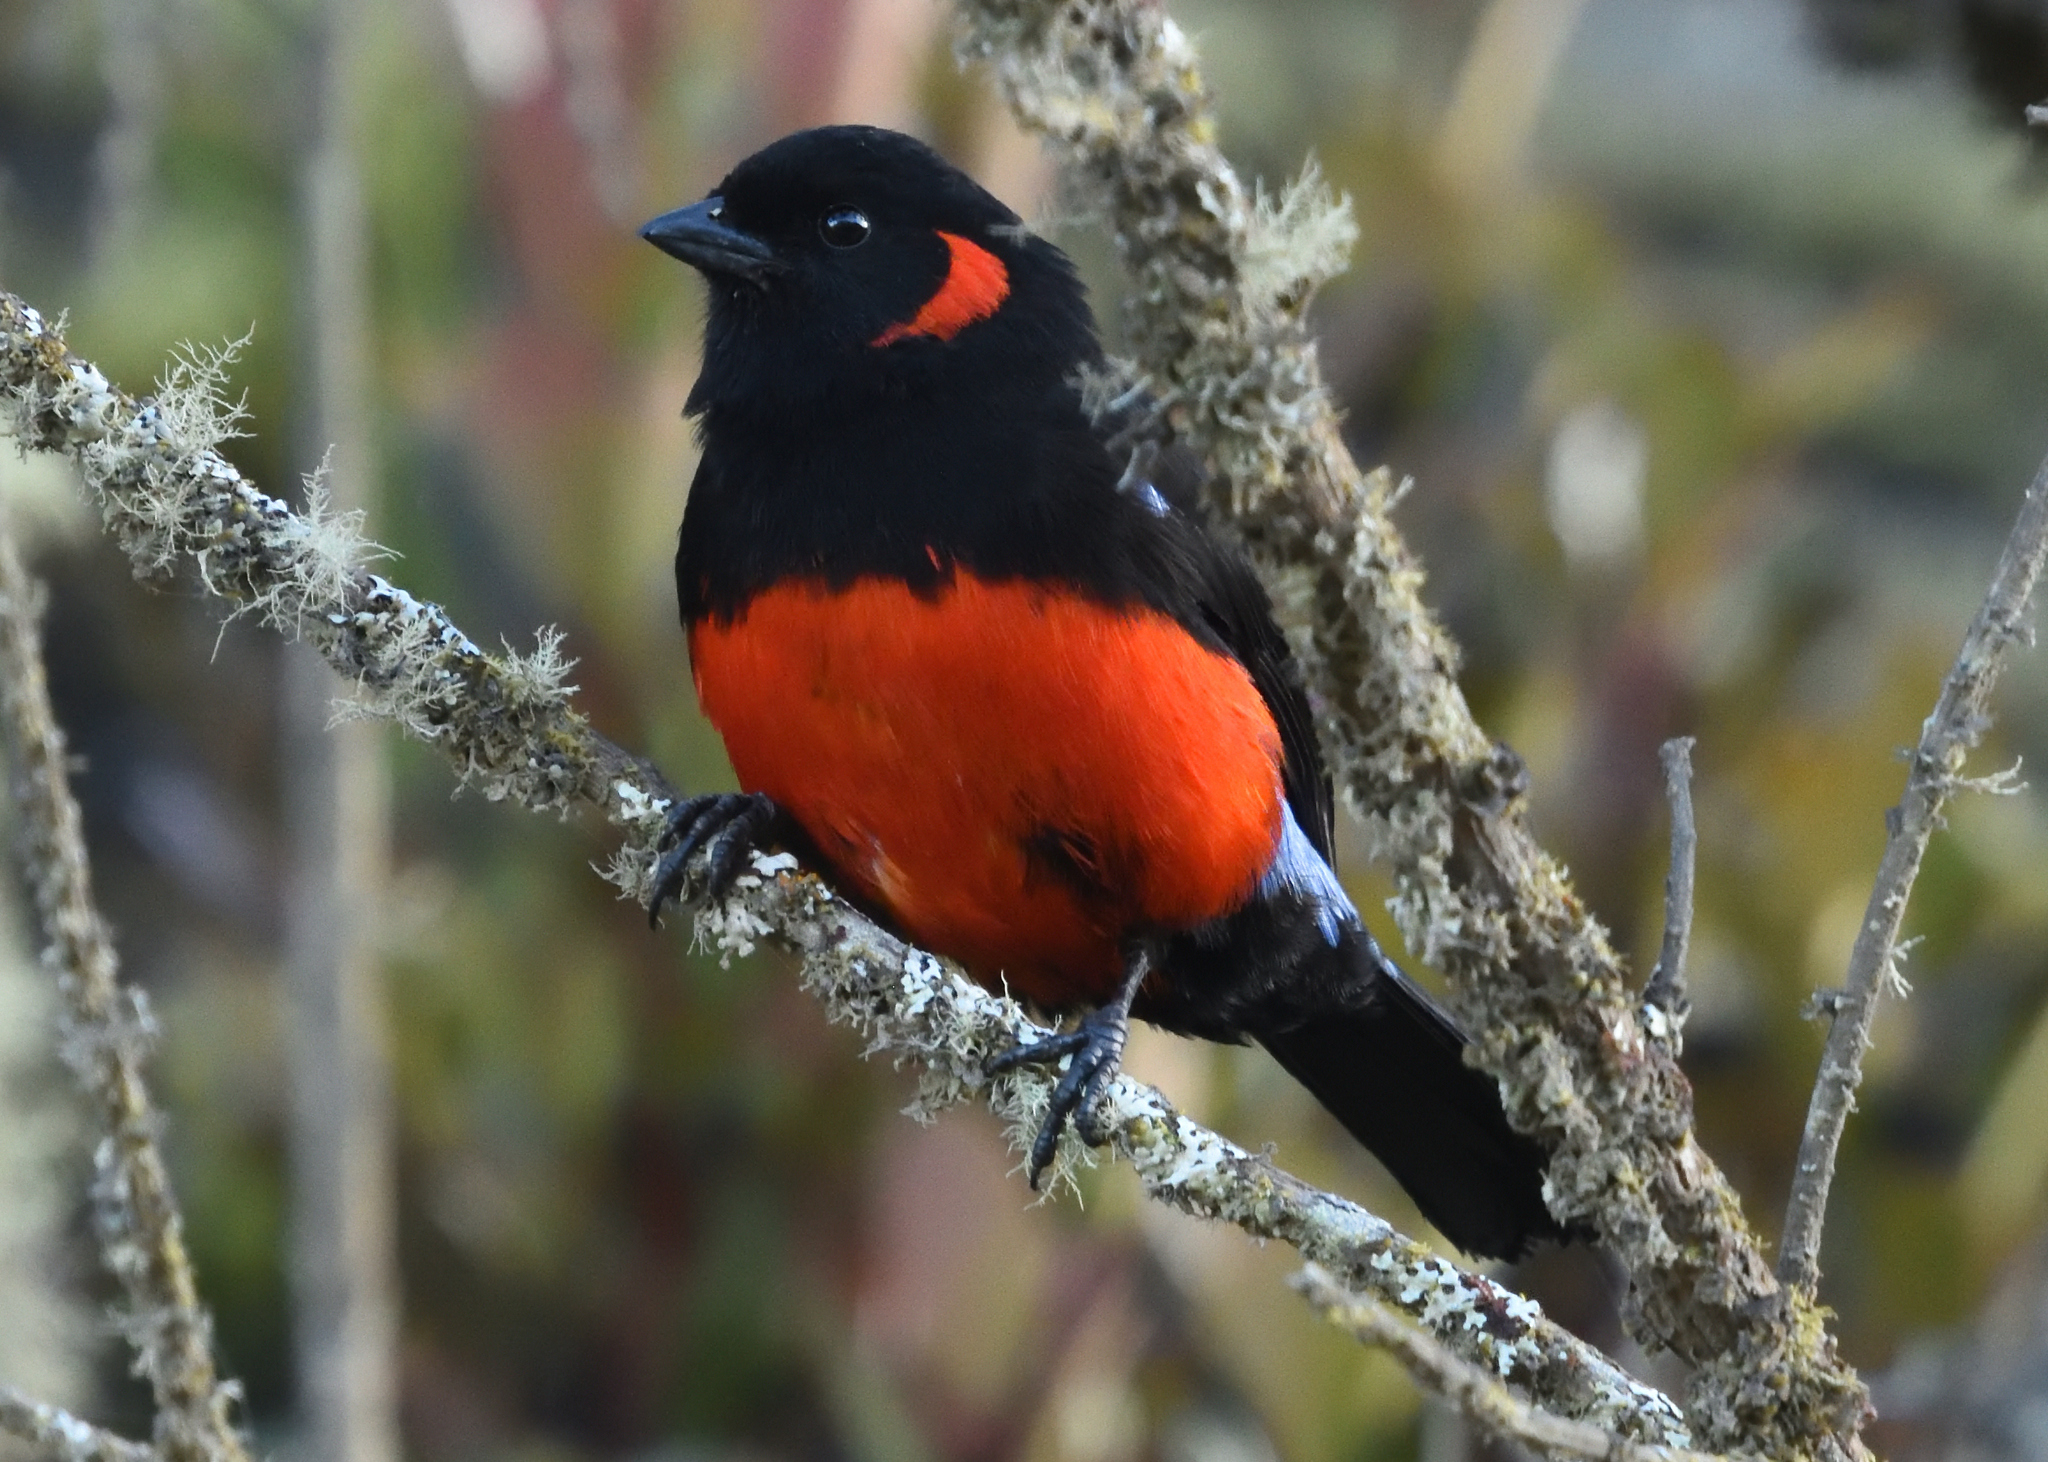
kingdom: Animalia
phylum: Chordata
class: Aves
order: Passeriformes
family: Thraupidae
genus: Anisognathus
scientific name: Anisognathus igniventris
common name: Scarlet-bellied mountain tanager
